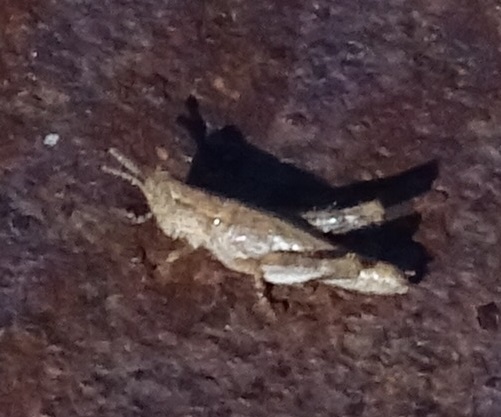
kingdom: Animalia
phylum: Arthropoda
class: Insecta
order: Orthoptera
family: Acrididae
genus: Pezotettix
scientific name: Pezotettix giornae
